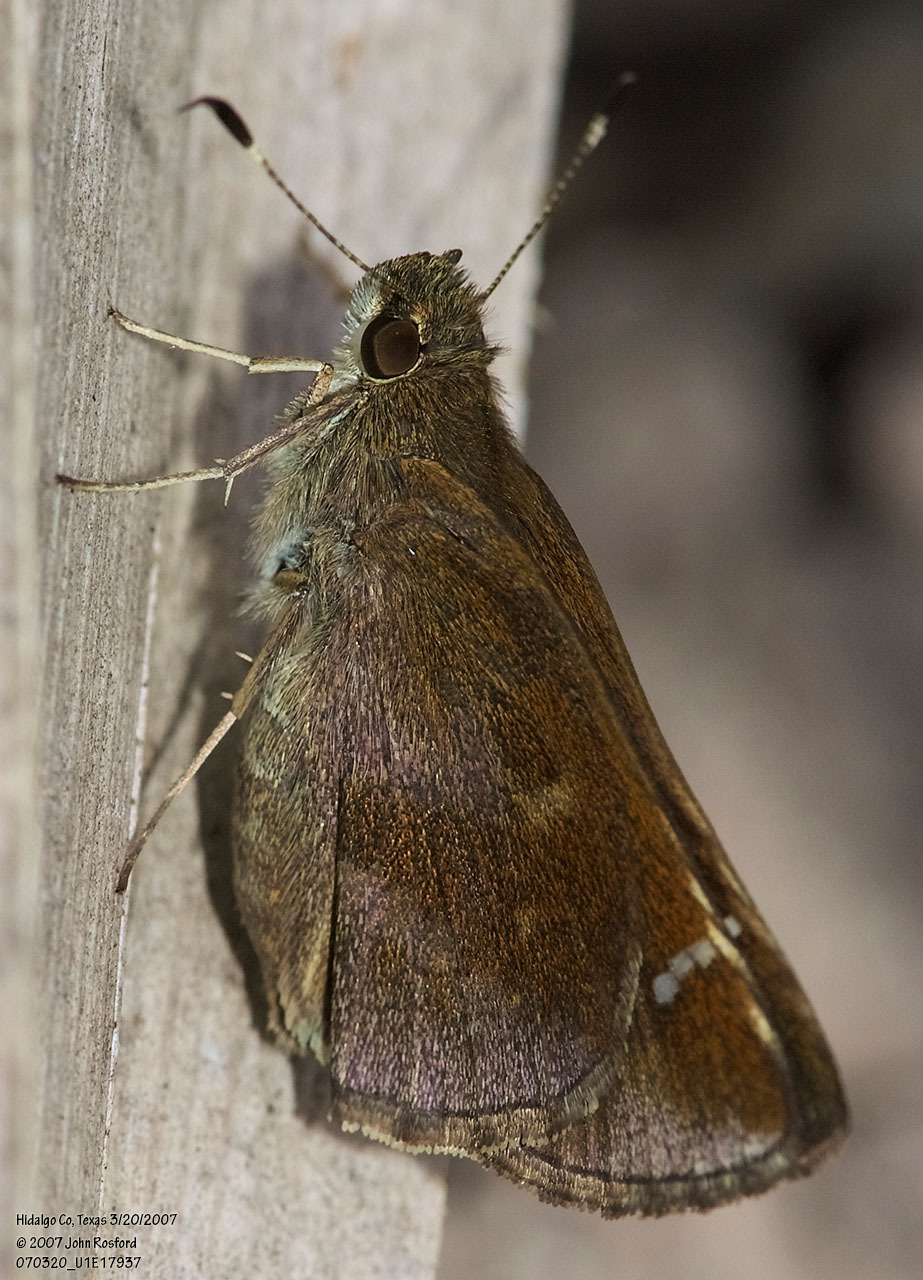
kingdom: Animalia
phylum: Arthropoda
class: Insecta
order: Lepidoptera
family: Hesperiidae
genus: Lerema
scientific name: Lerema accius
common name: Clouded skipper
